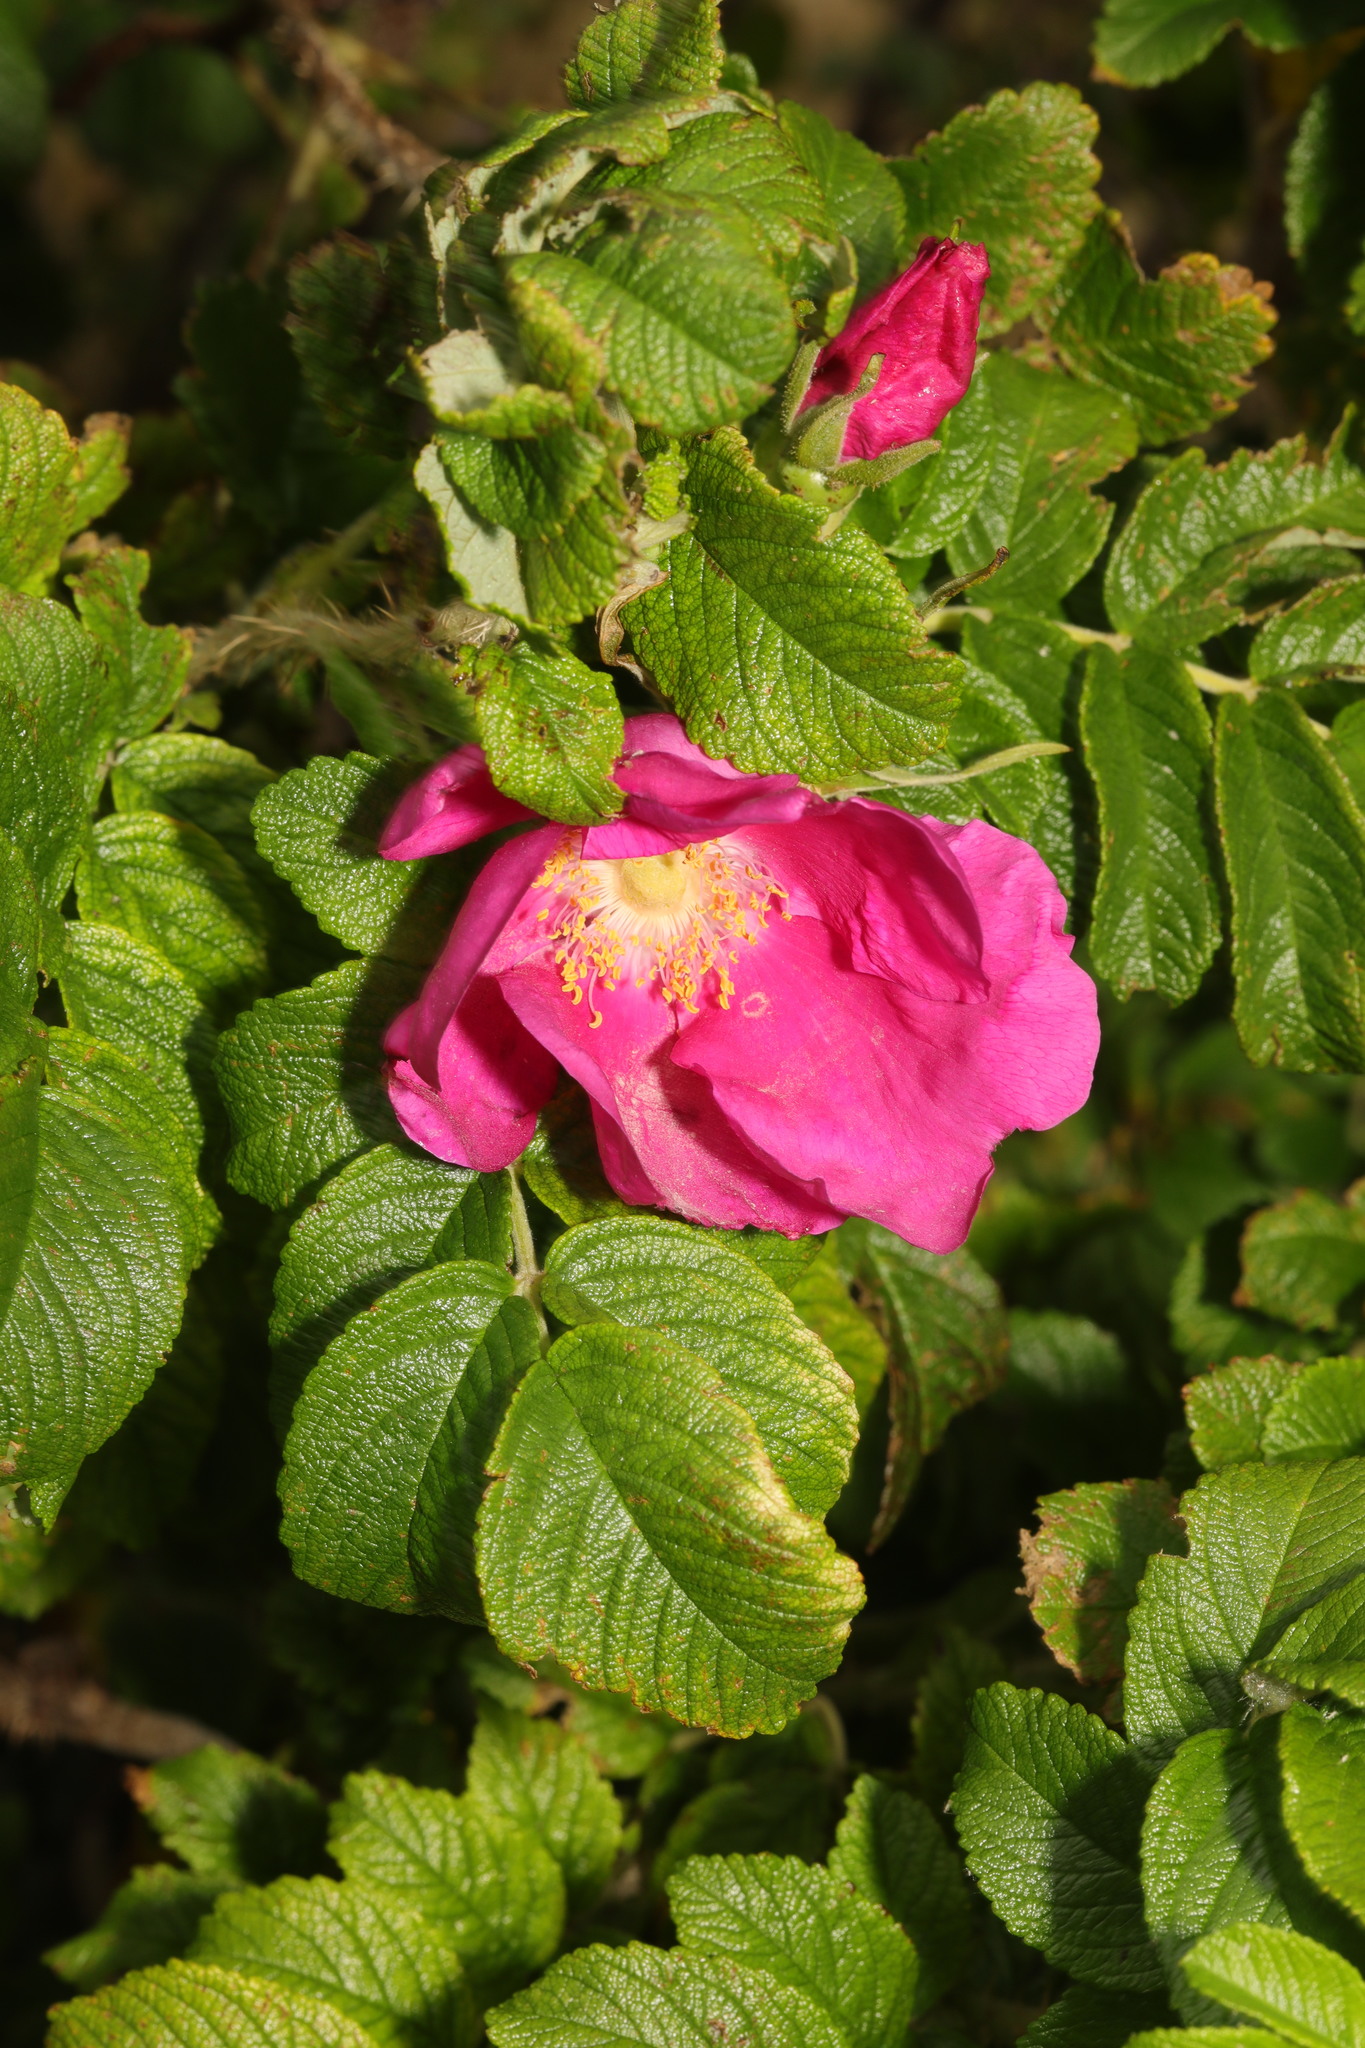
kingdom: Plantae
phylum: Tracheophyta
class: Magnoliopsida
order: Rosales
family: Rosaceae
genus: Rosa
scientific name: Rosa rugosa
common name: Japanese rose
